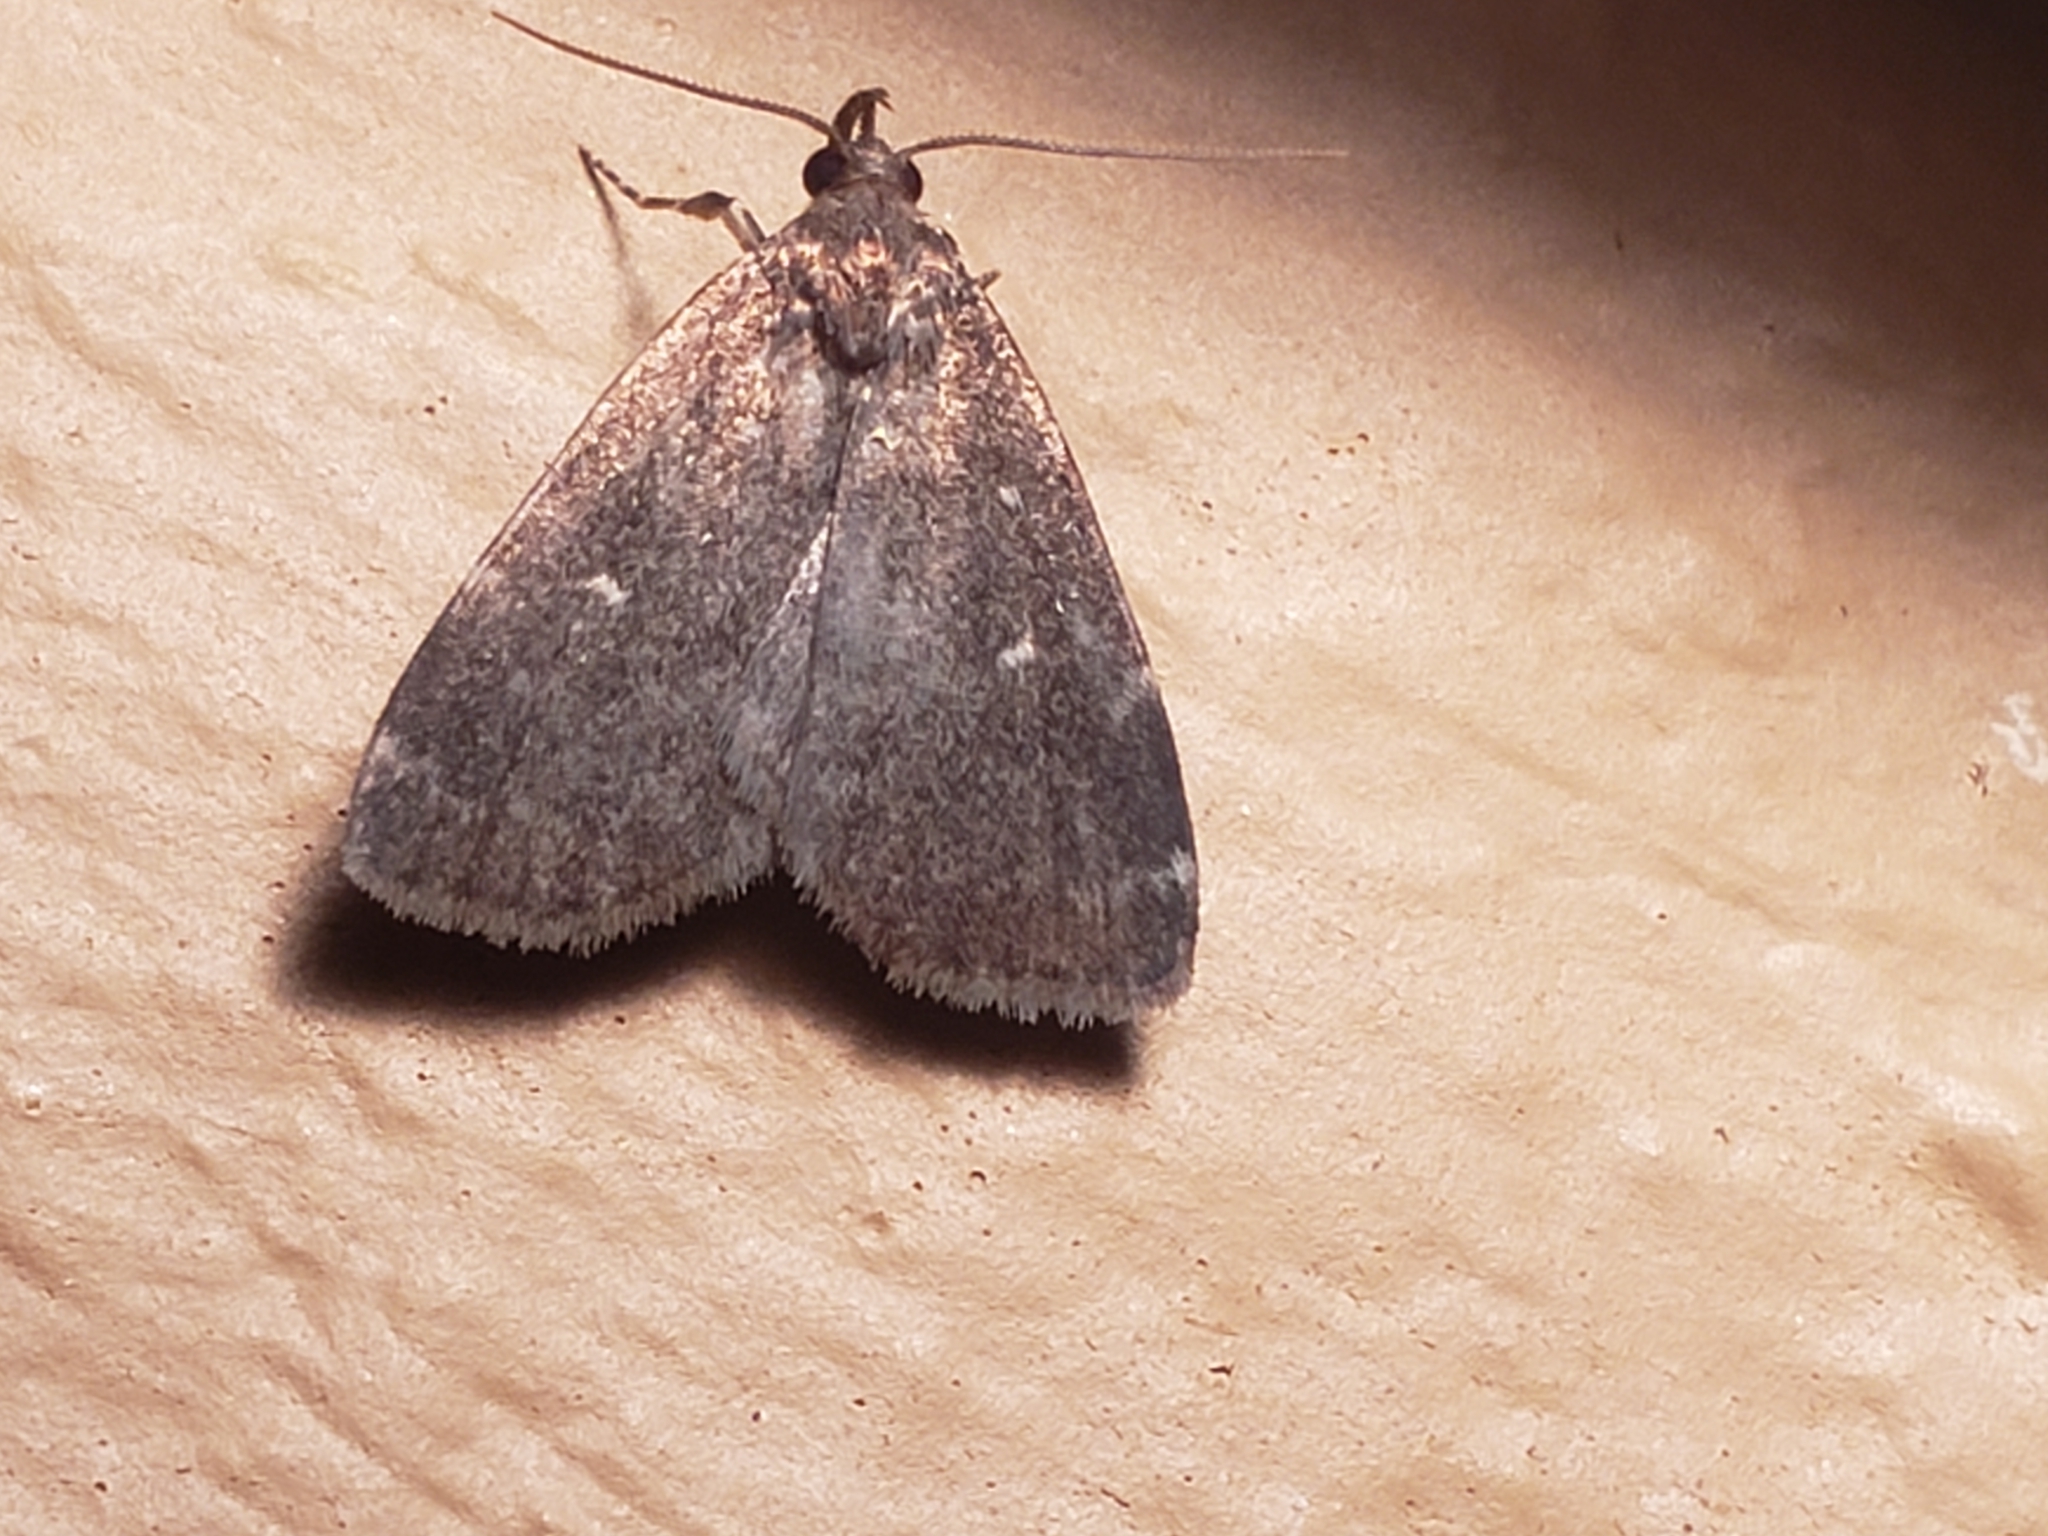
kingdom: Animalia
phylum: Arthropoda
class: Insecta
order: Lepidoptera
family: Erebidae
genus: Idia
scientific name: Idia julia
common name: Julia's idia moth
